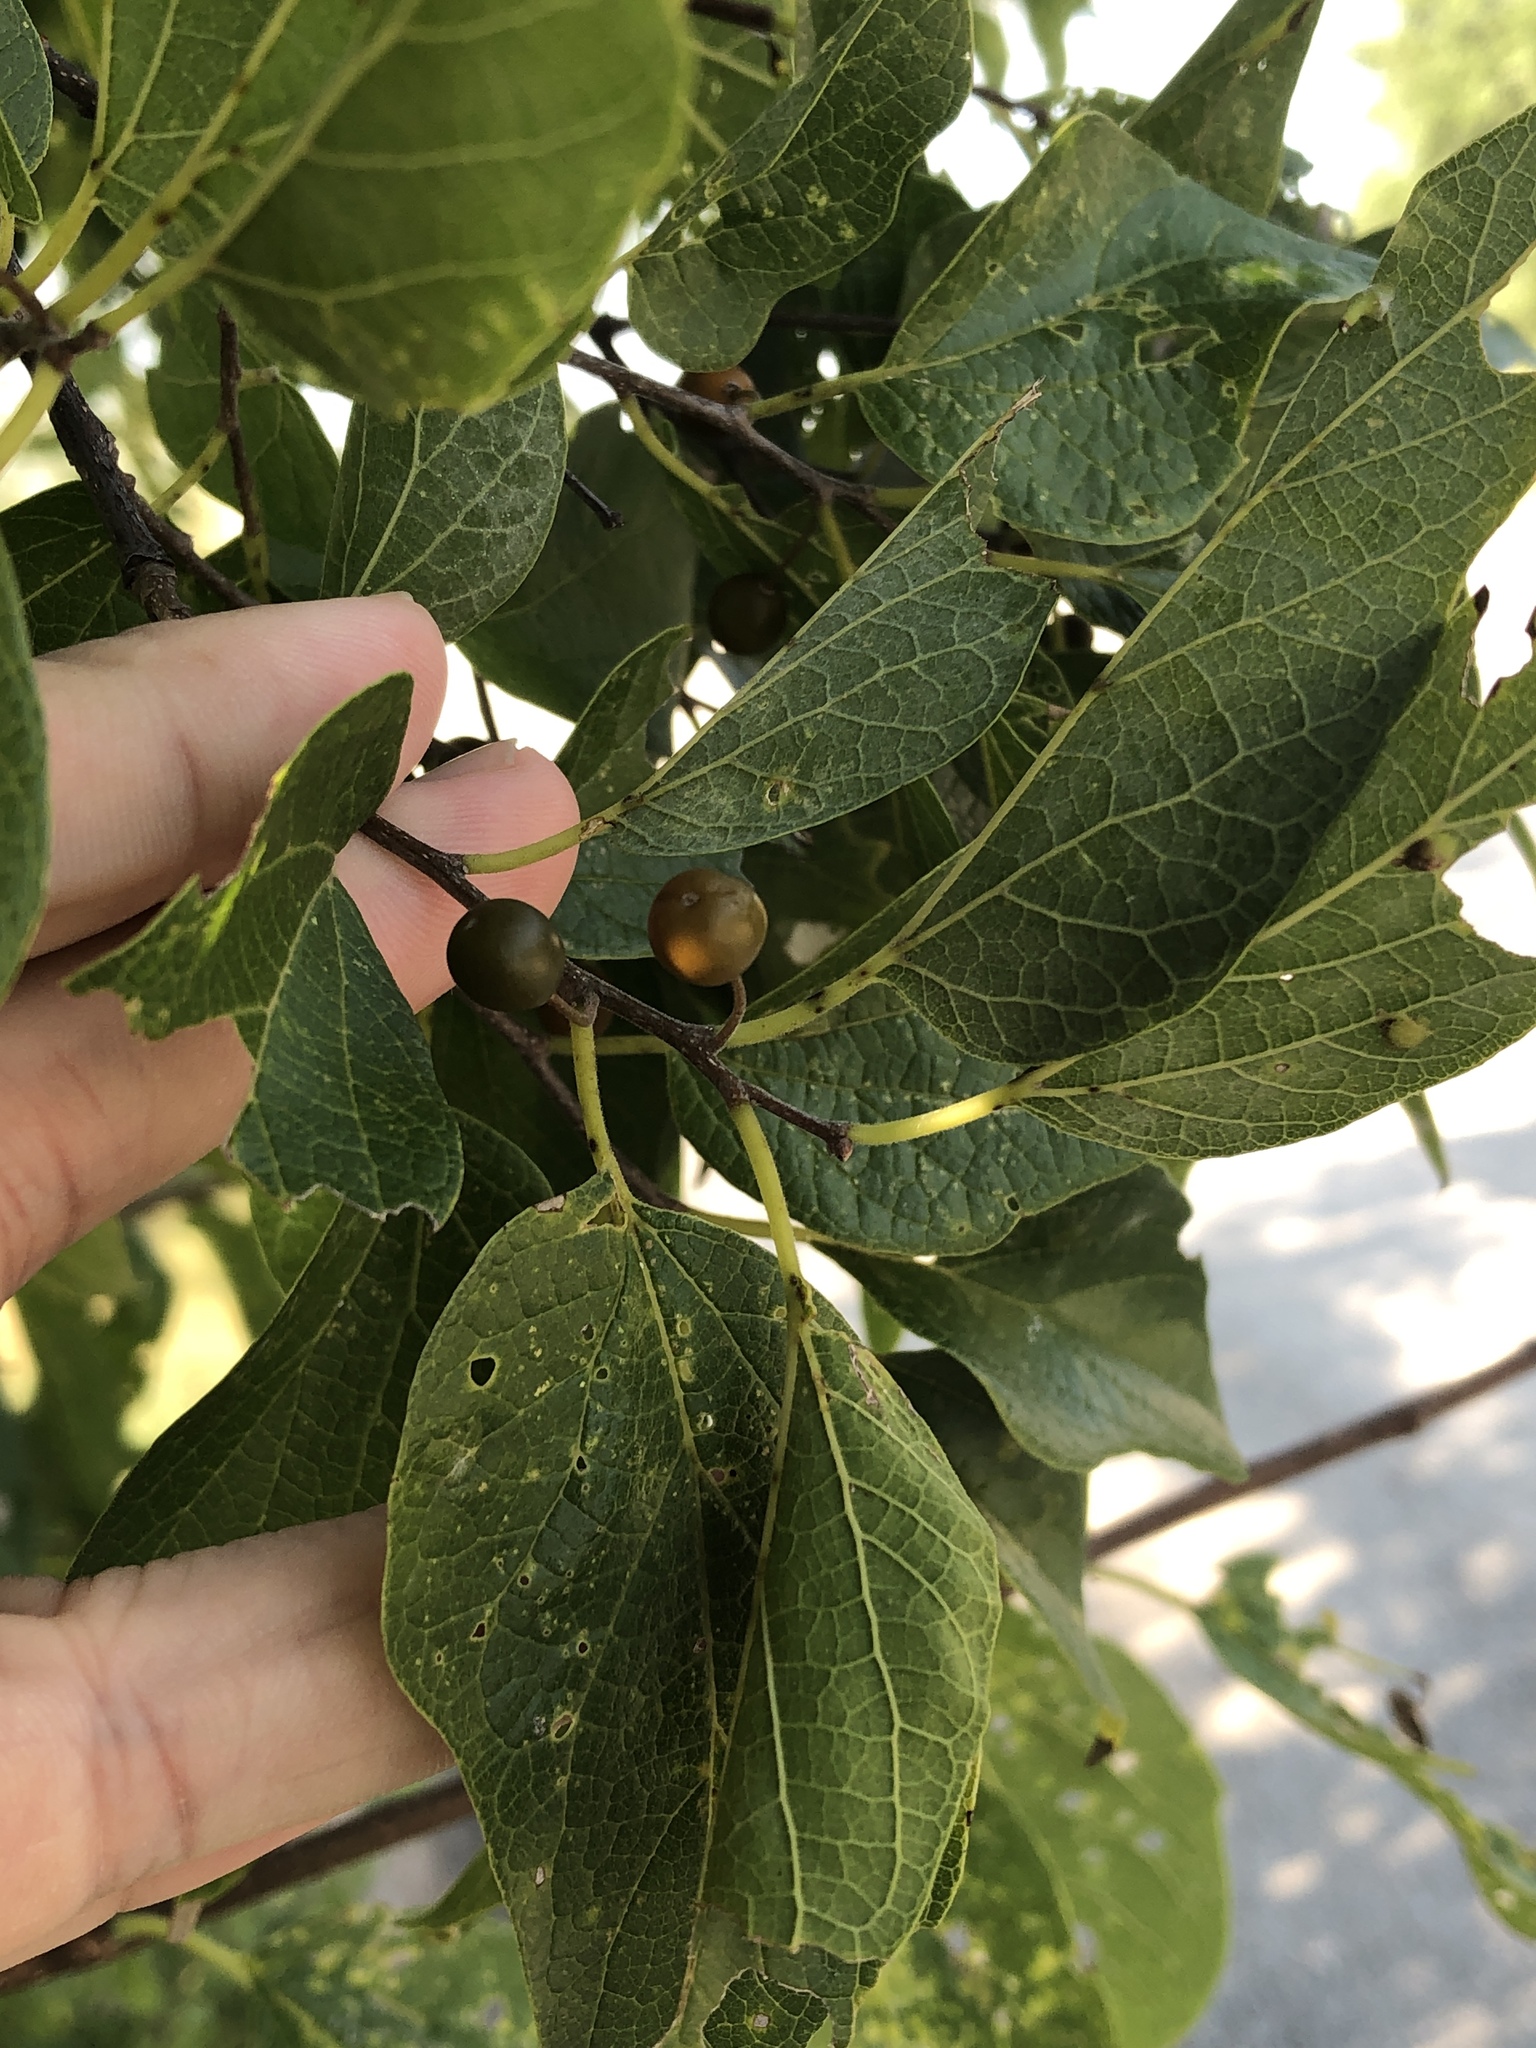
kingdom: Plantae
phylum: Tracheophyta
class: Magnoliopsida
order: Rosales
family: Cannabaceae
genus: Celtis
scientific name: Celtis laevigata
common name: Sugarberry
